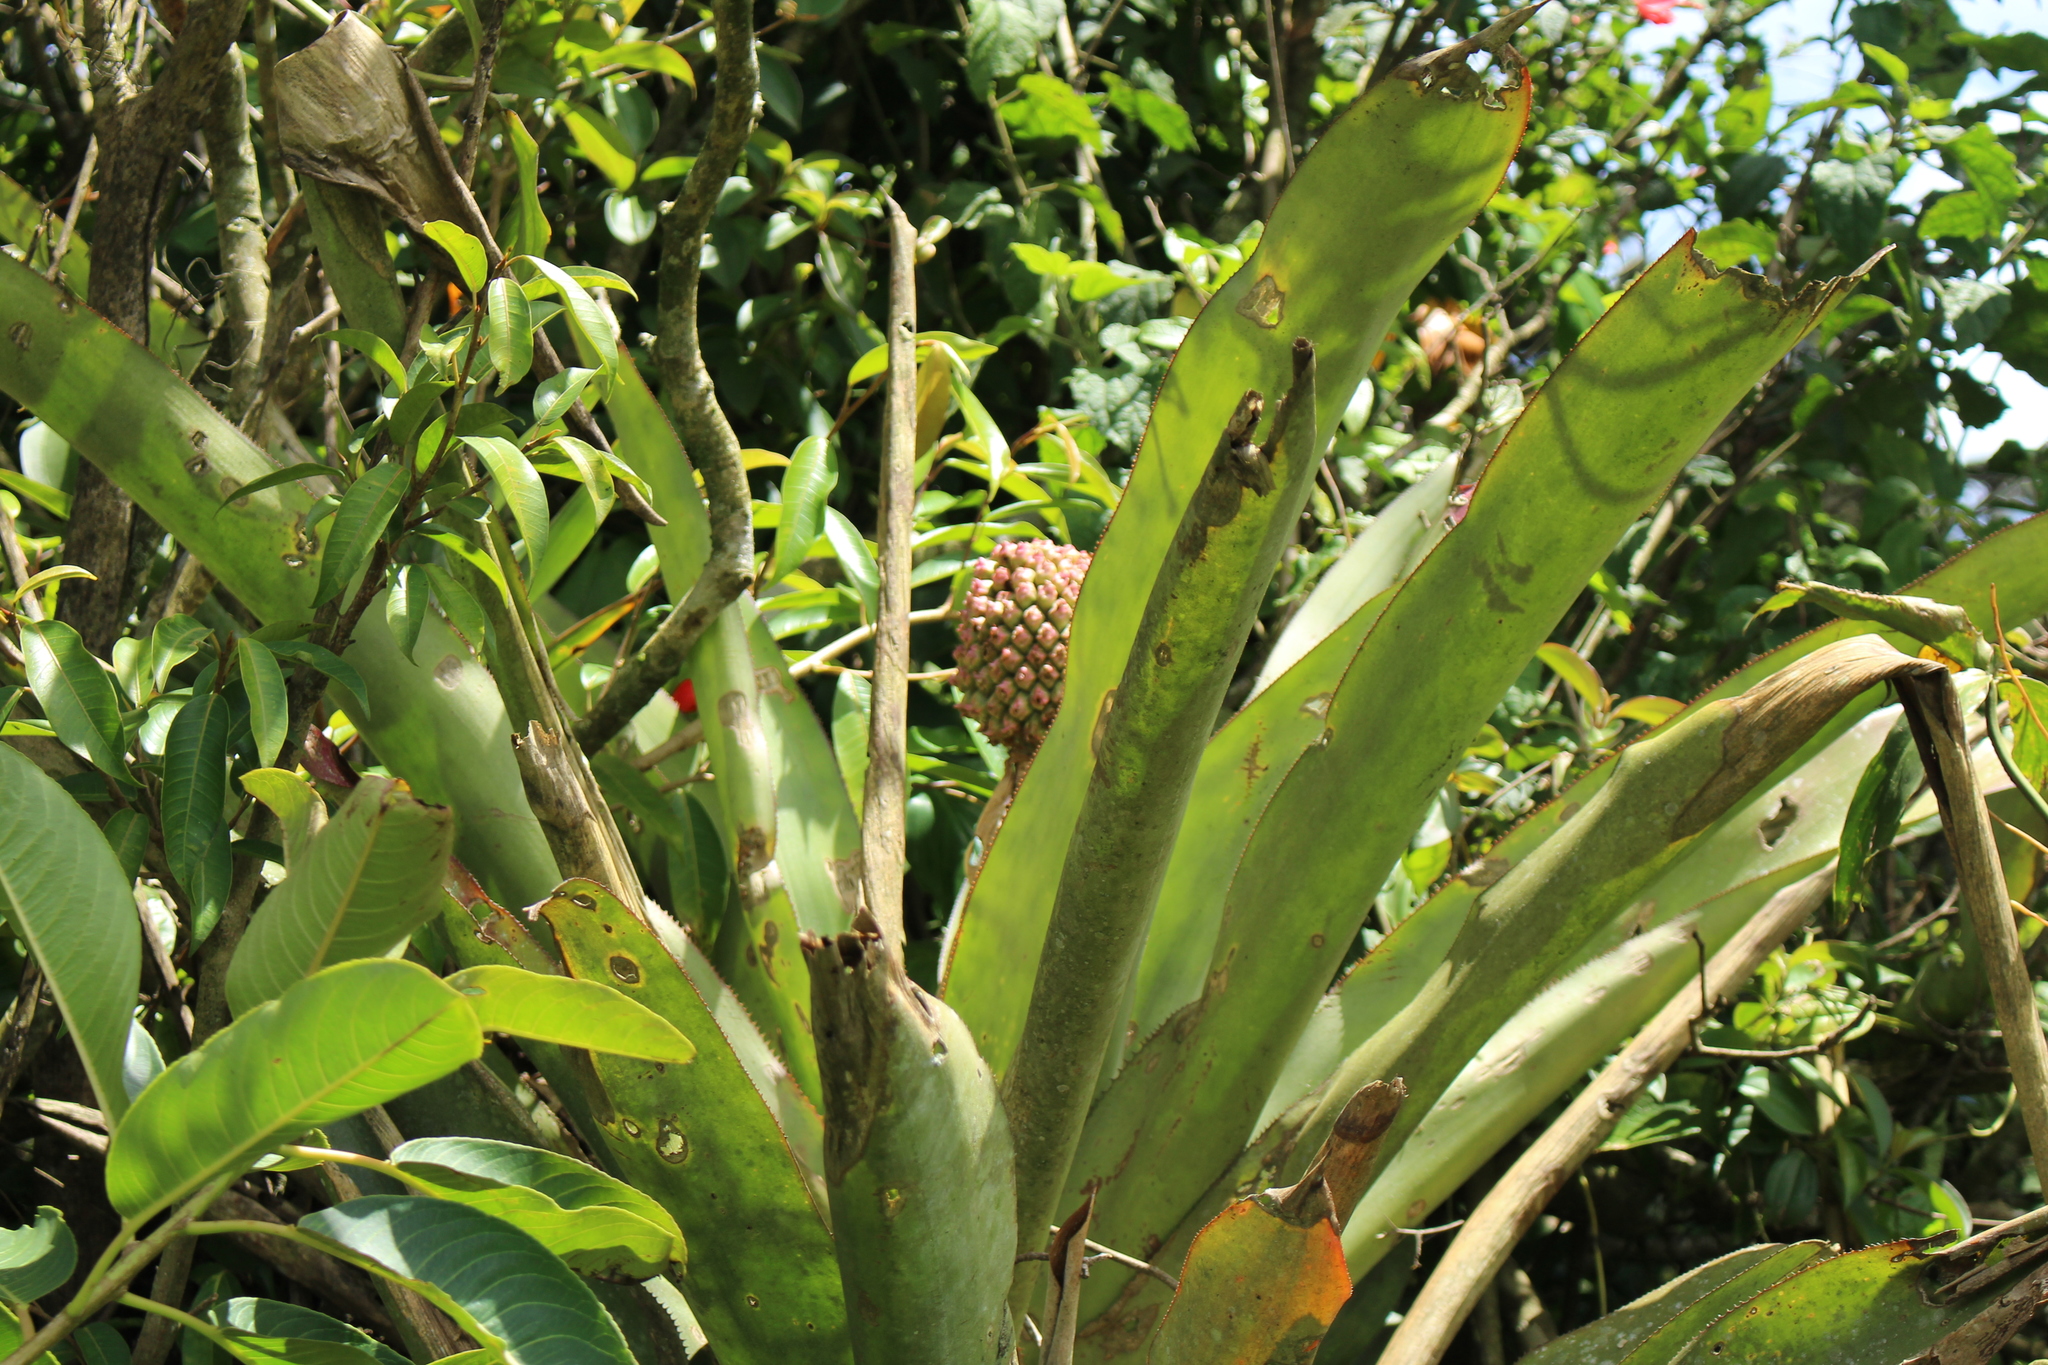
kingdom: Plantae
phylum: Tracheophyta
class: Liliopsida
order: Poales
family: Bromeliaceae
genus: Aechmea
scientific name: Aechmea mariae-reginae
